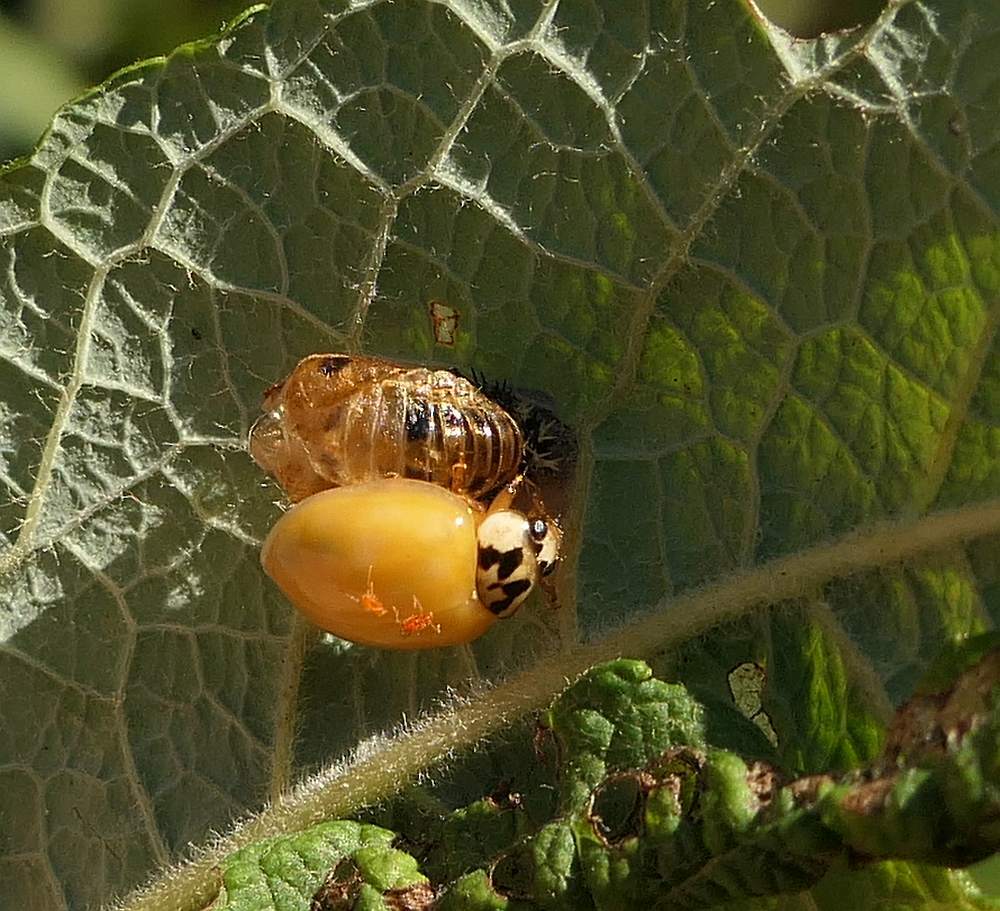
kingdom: Animalia
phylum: Arthropoda
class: Insecta
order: Coleoptera
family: Coccinellidae
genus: Harmonia
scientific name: Harmonia axyridis
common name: Harlequin ladybird
